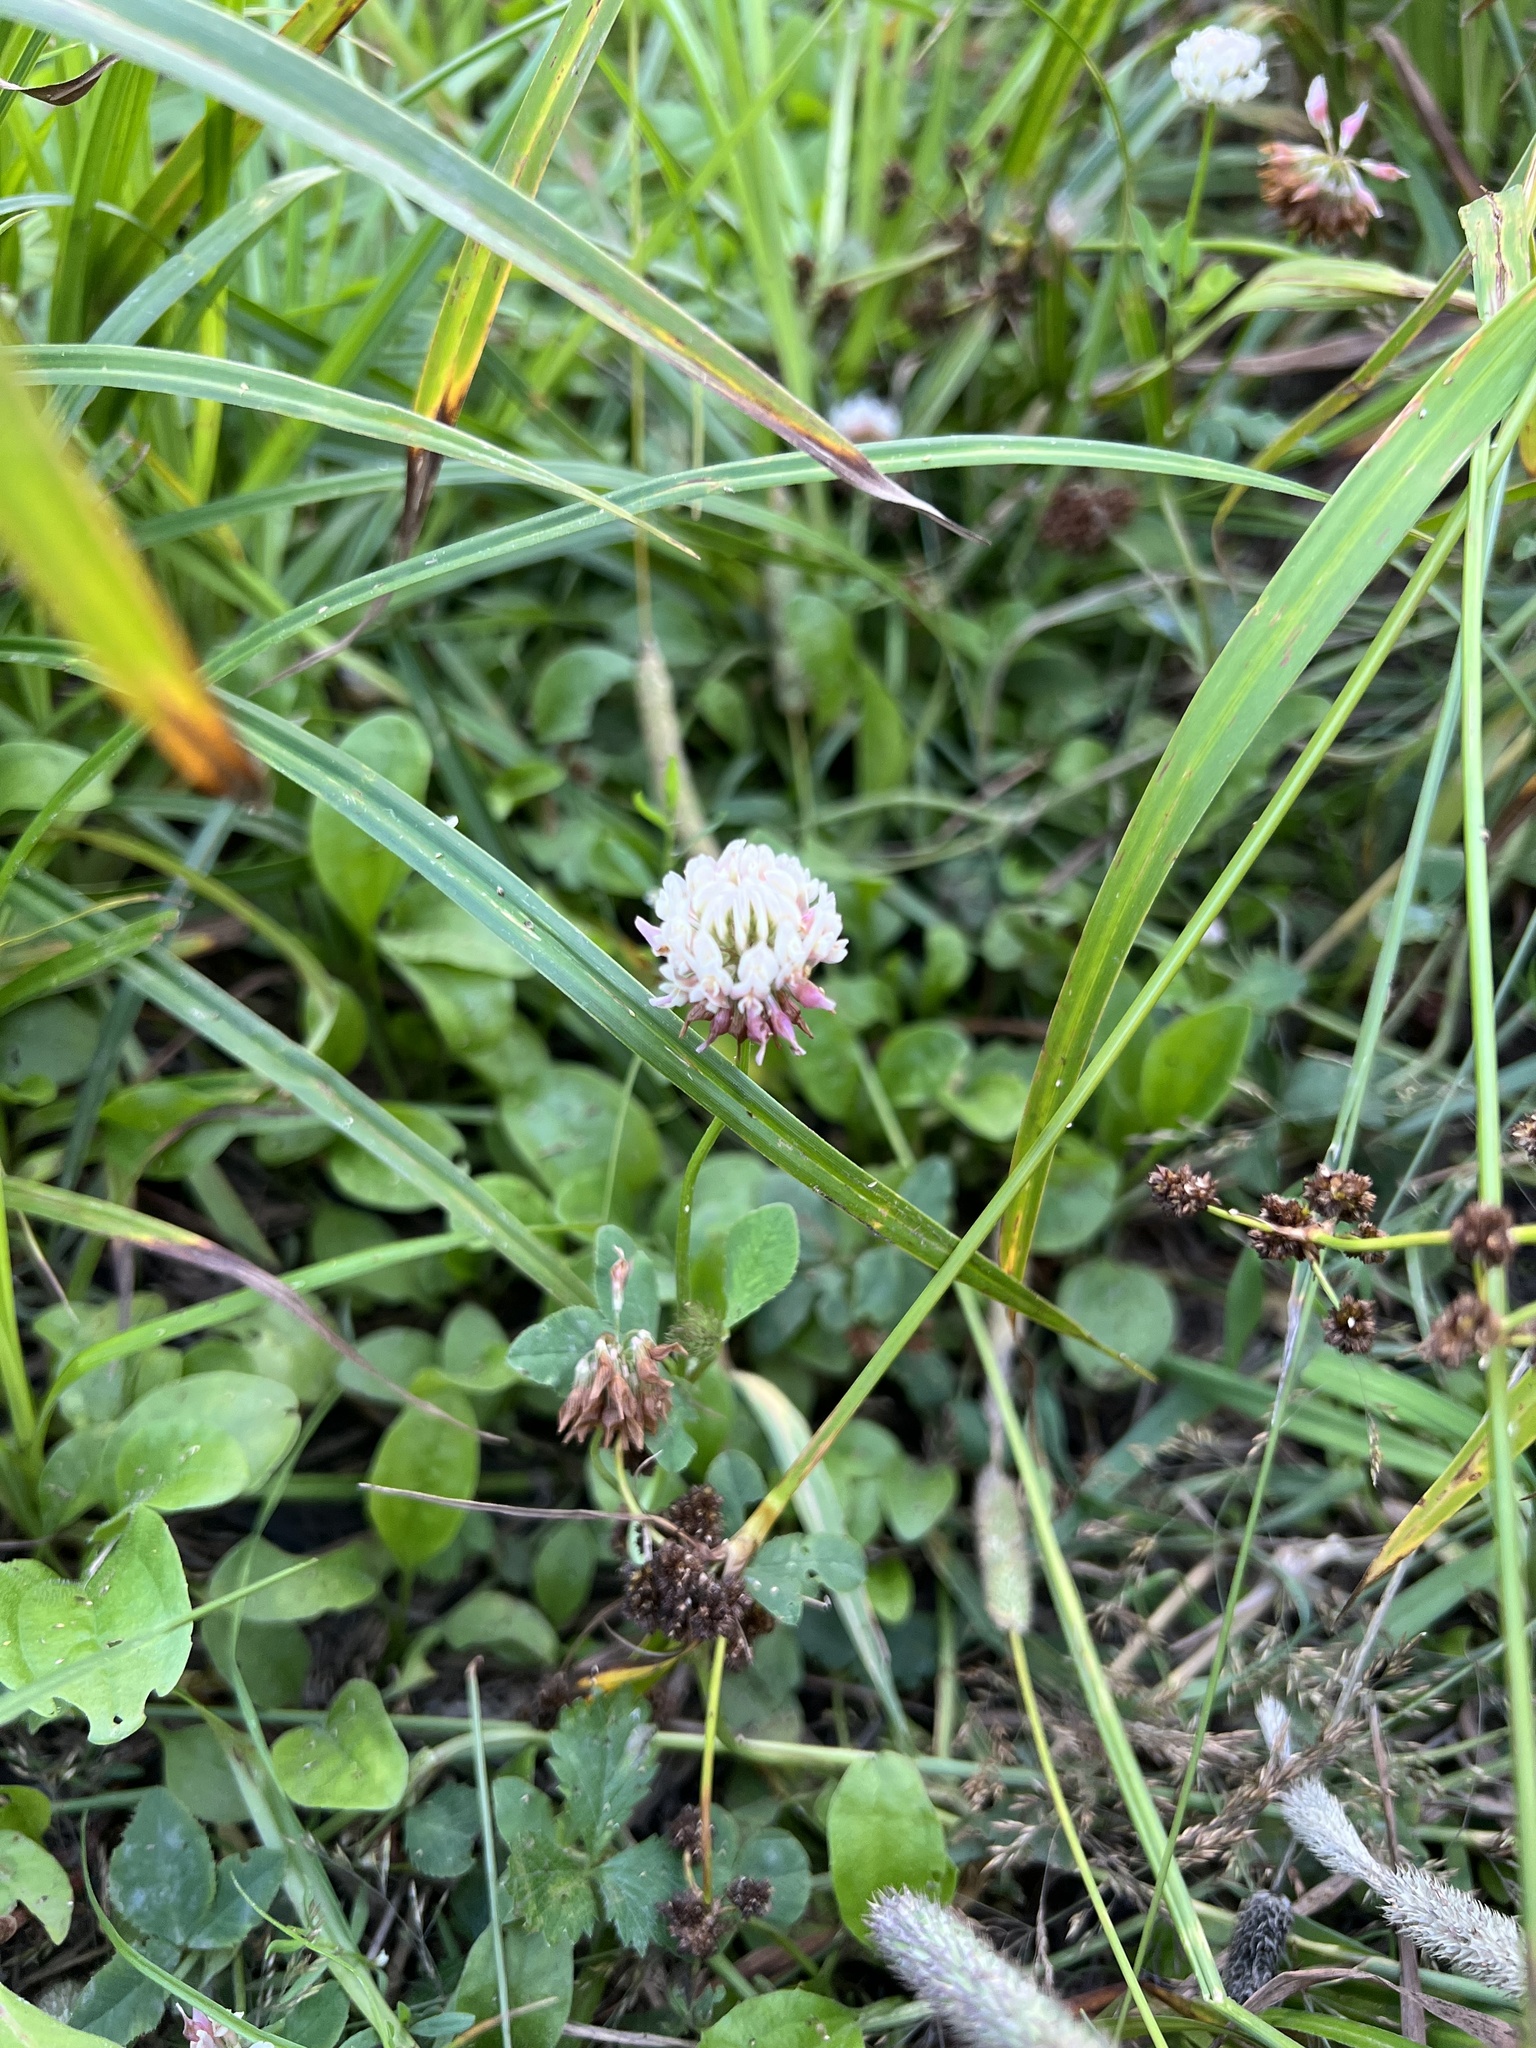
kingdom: Plantae
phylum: Tracheophyta
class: Magnoliopsida
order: Fabales
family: Fabaceae
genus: Trifolium
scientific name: Trifolium hybridum
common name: Alsike clover
